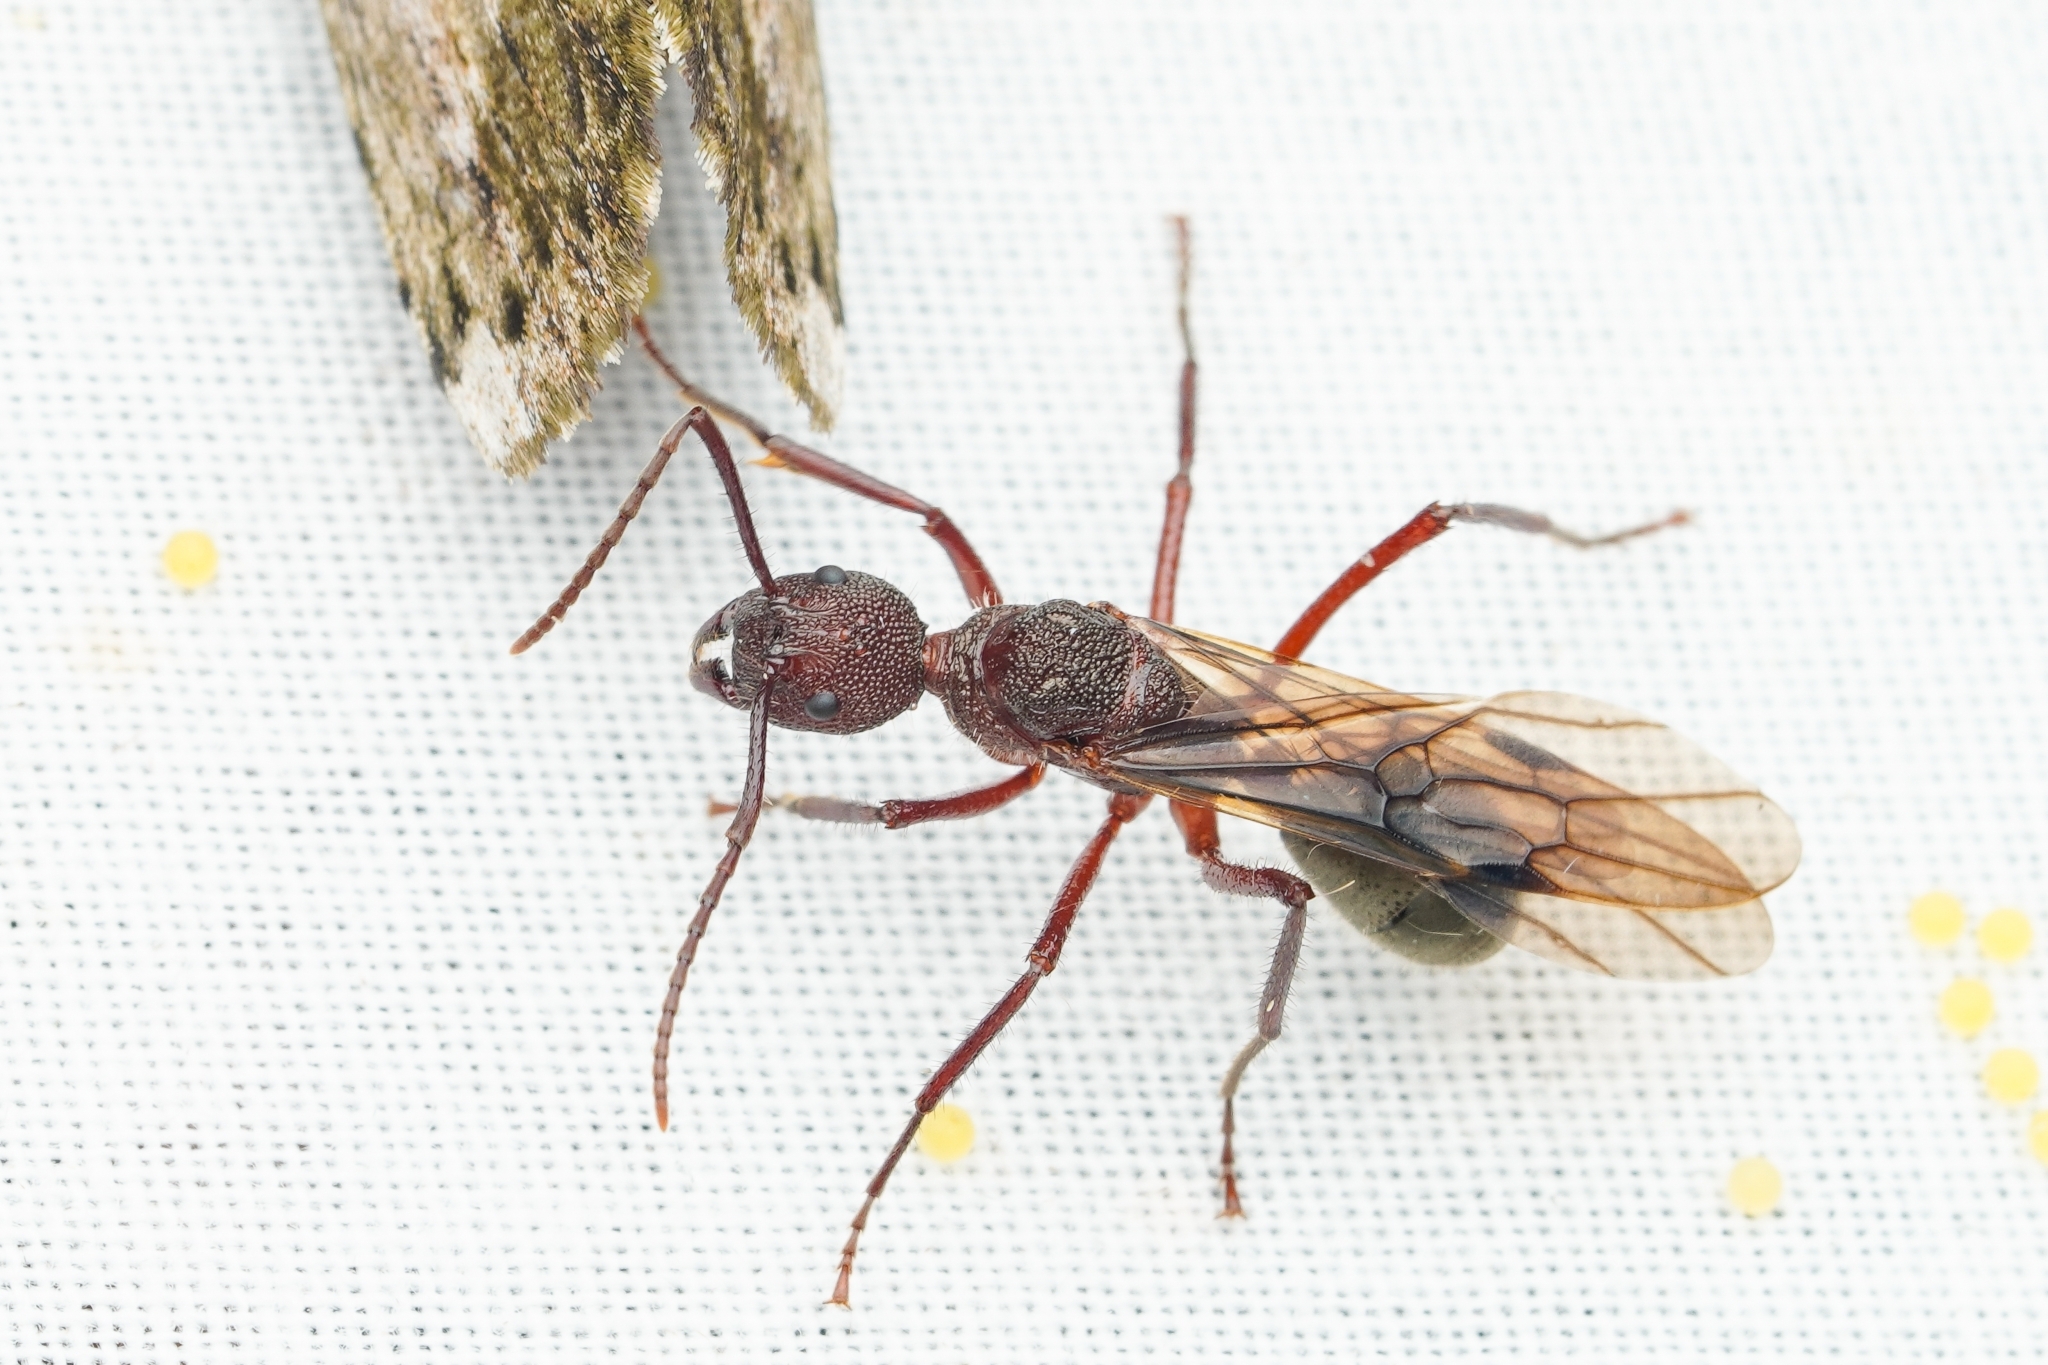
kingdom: Animalia
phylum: Arthropoda
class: Insecta
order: Hymenoptera
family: Formicidae
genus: Dolichoderus
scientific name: Dolichoderus decollatus
